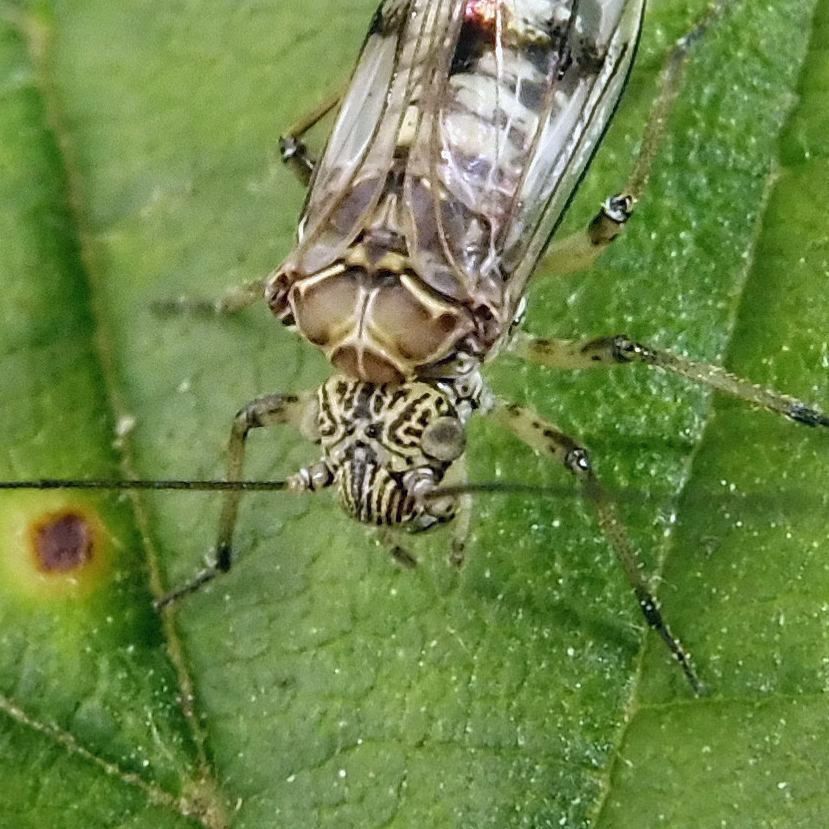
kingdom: Animalia
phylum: Arthropoda
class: Insecta
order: Psocodea
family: Psocidae
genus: Psococerastis
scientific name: Psococerastis gibbosa
